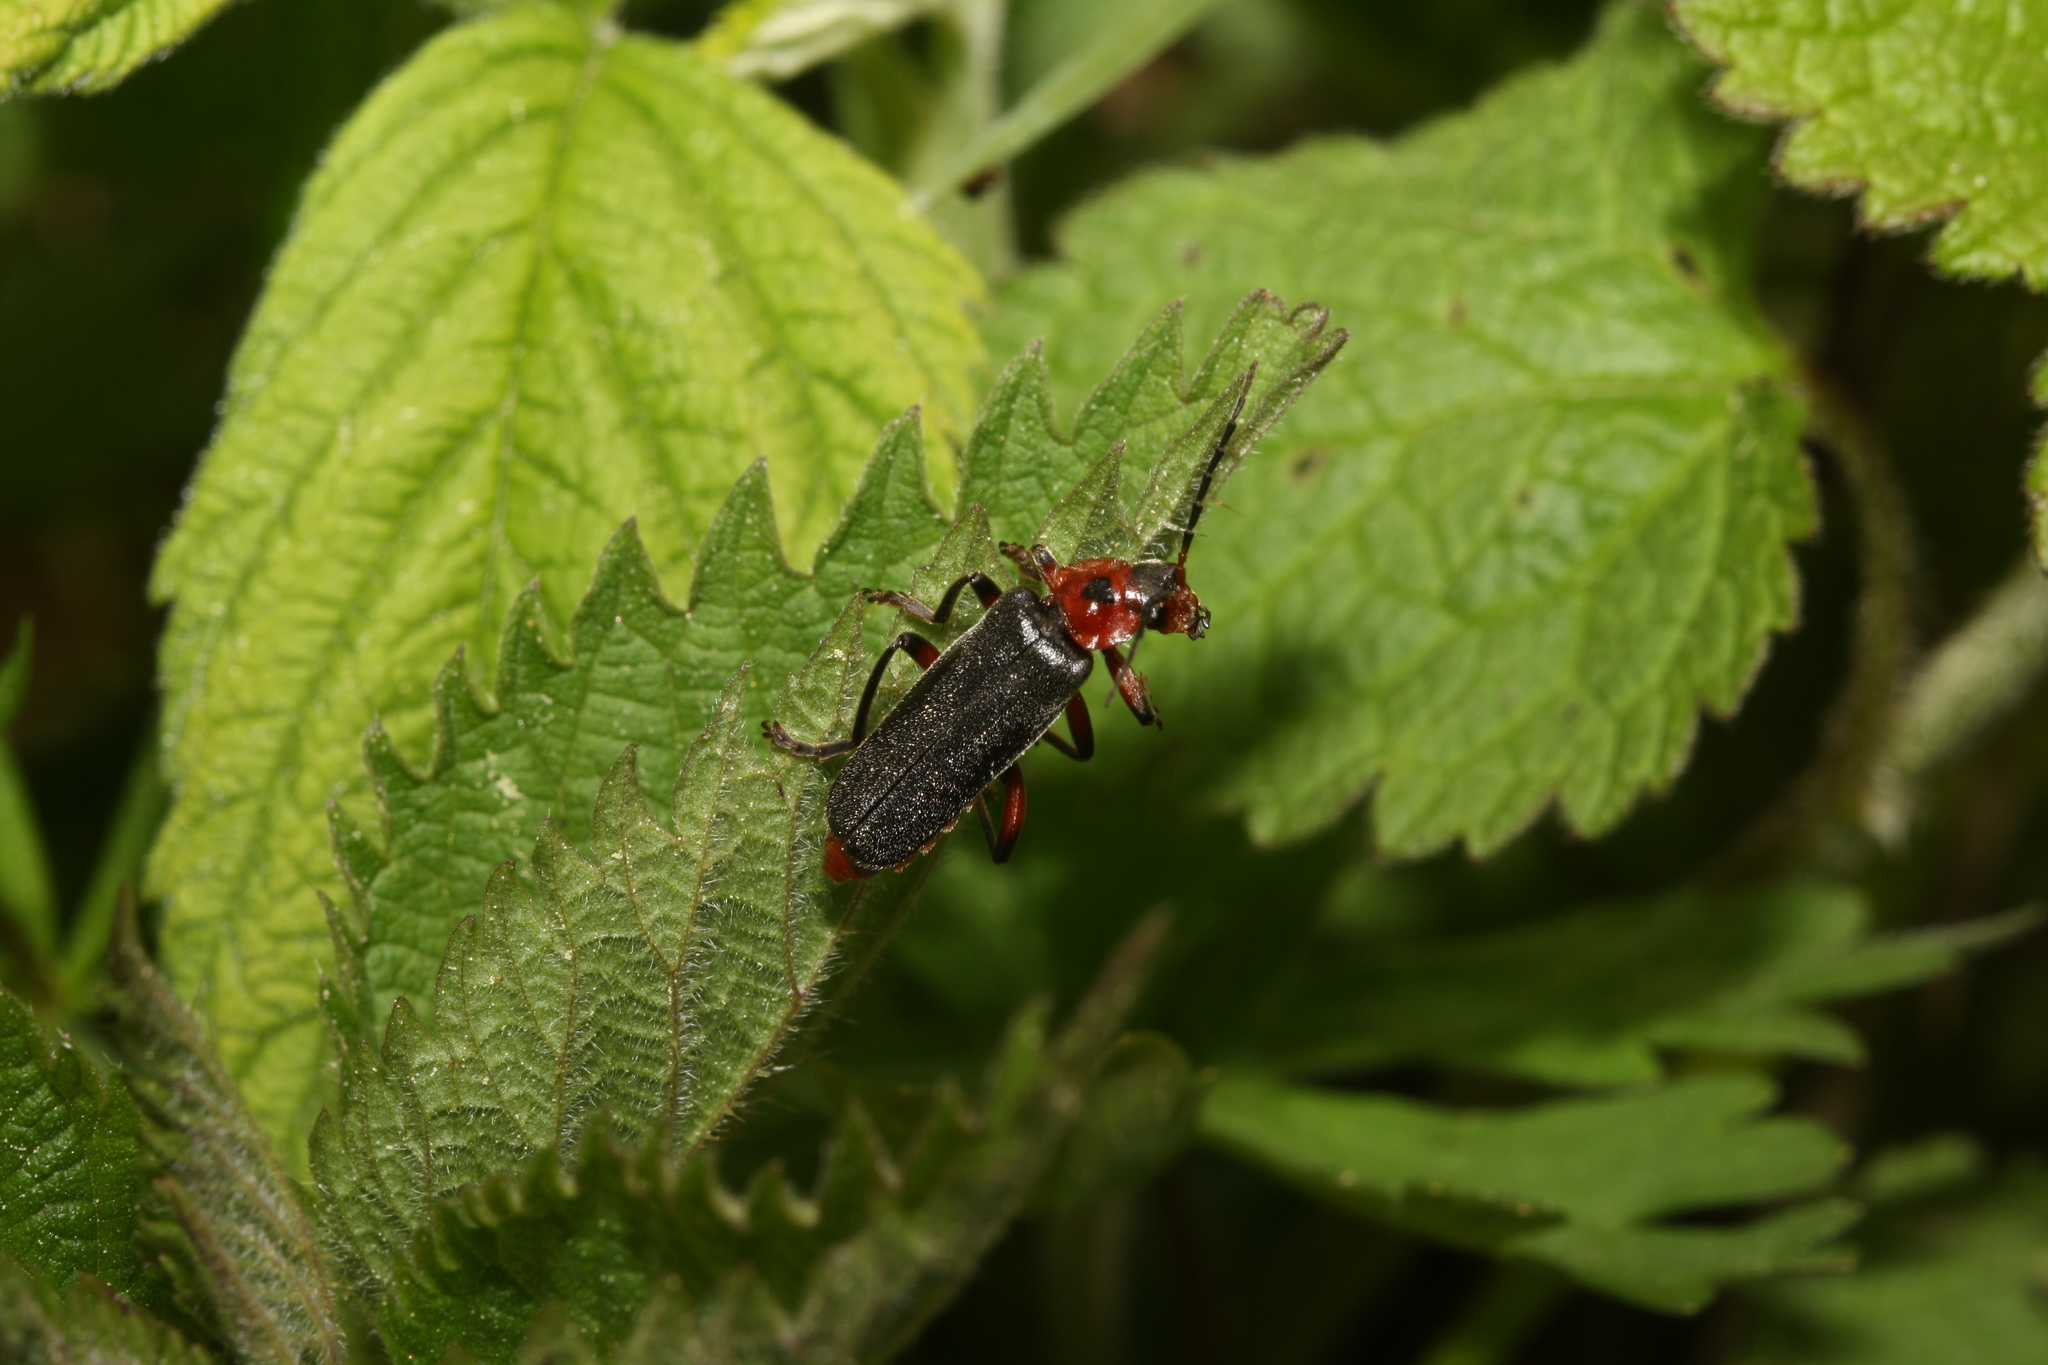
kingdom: Animalia
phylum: Arthropoda
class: Insecta
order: Coleoptera
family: Cantharidae
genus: Cantharis
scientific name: Cantharis rustica
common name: Soldier beetle
